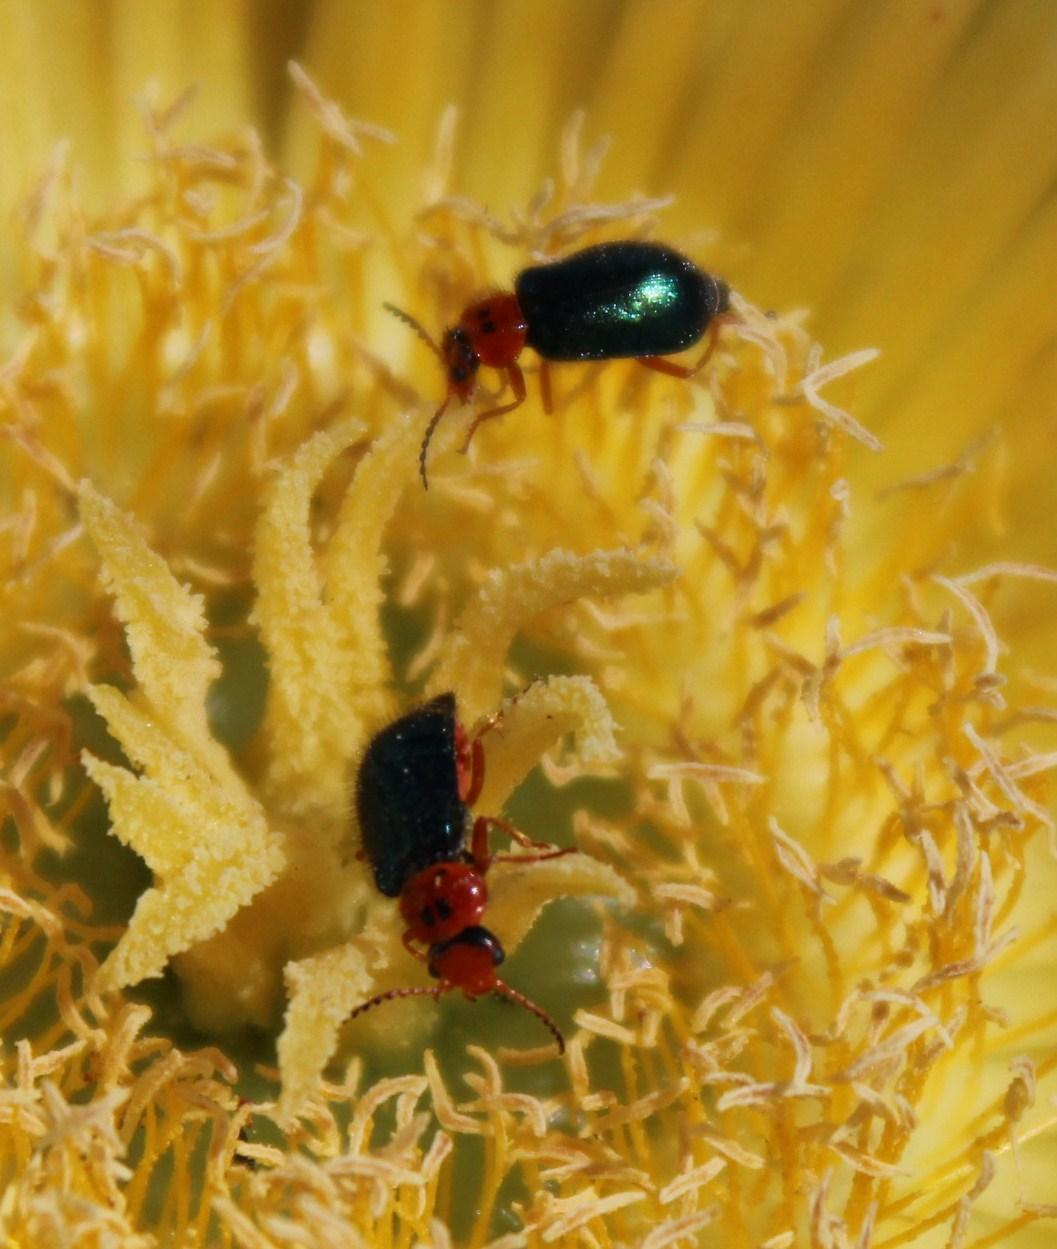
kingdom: Animalia
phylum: Arthropoda
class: Insecta
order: Coleoptera
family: Melyridae
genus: Ascolhedybius
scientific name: Ascolhedybius
